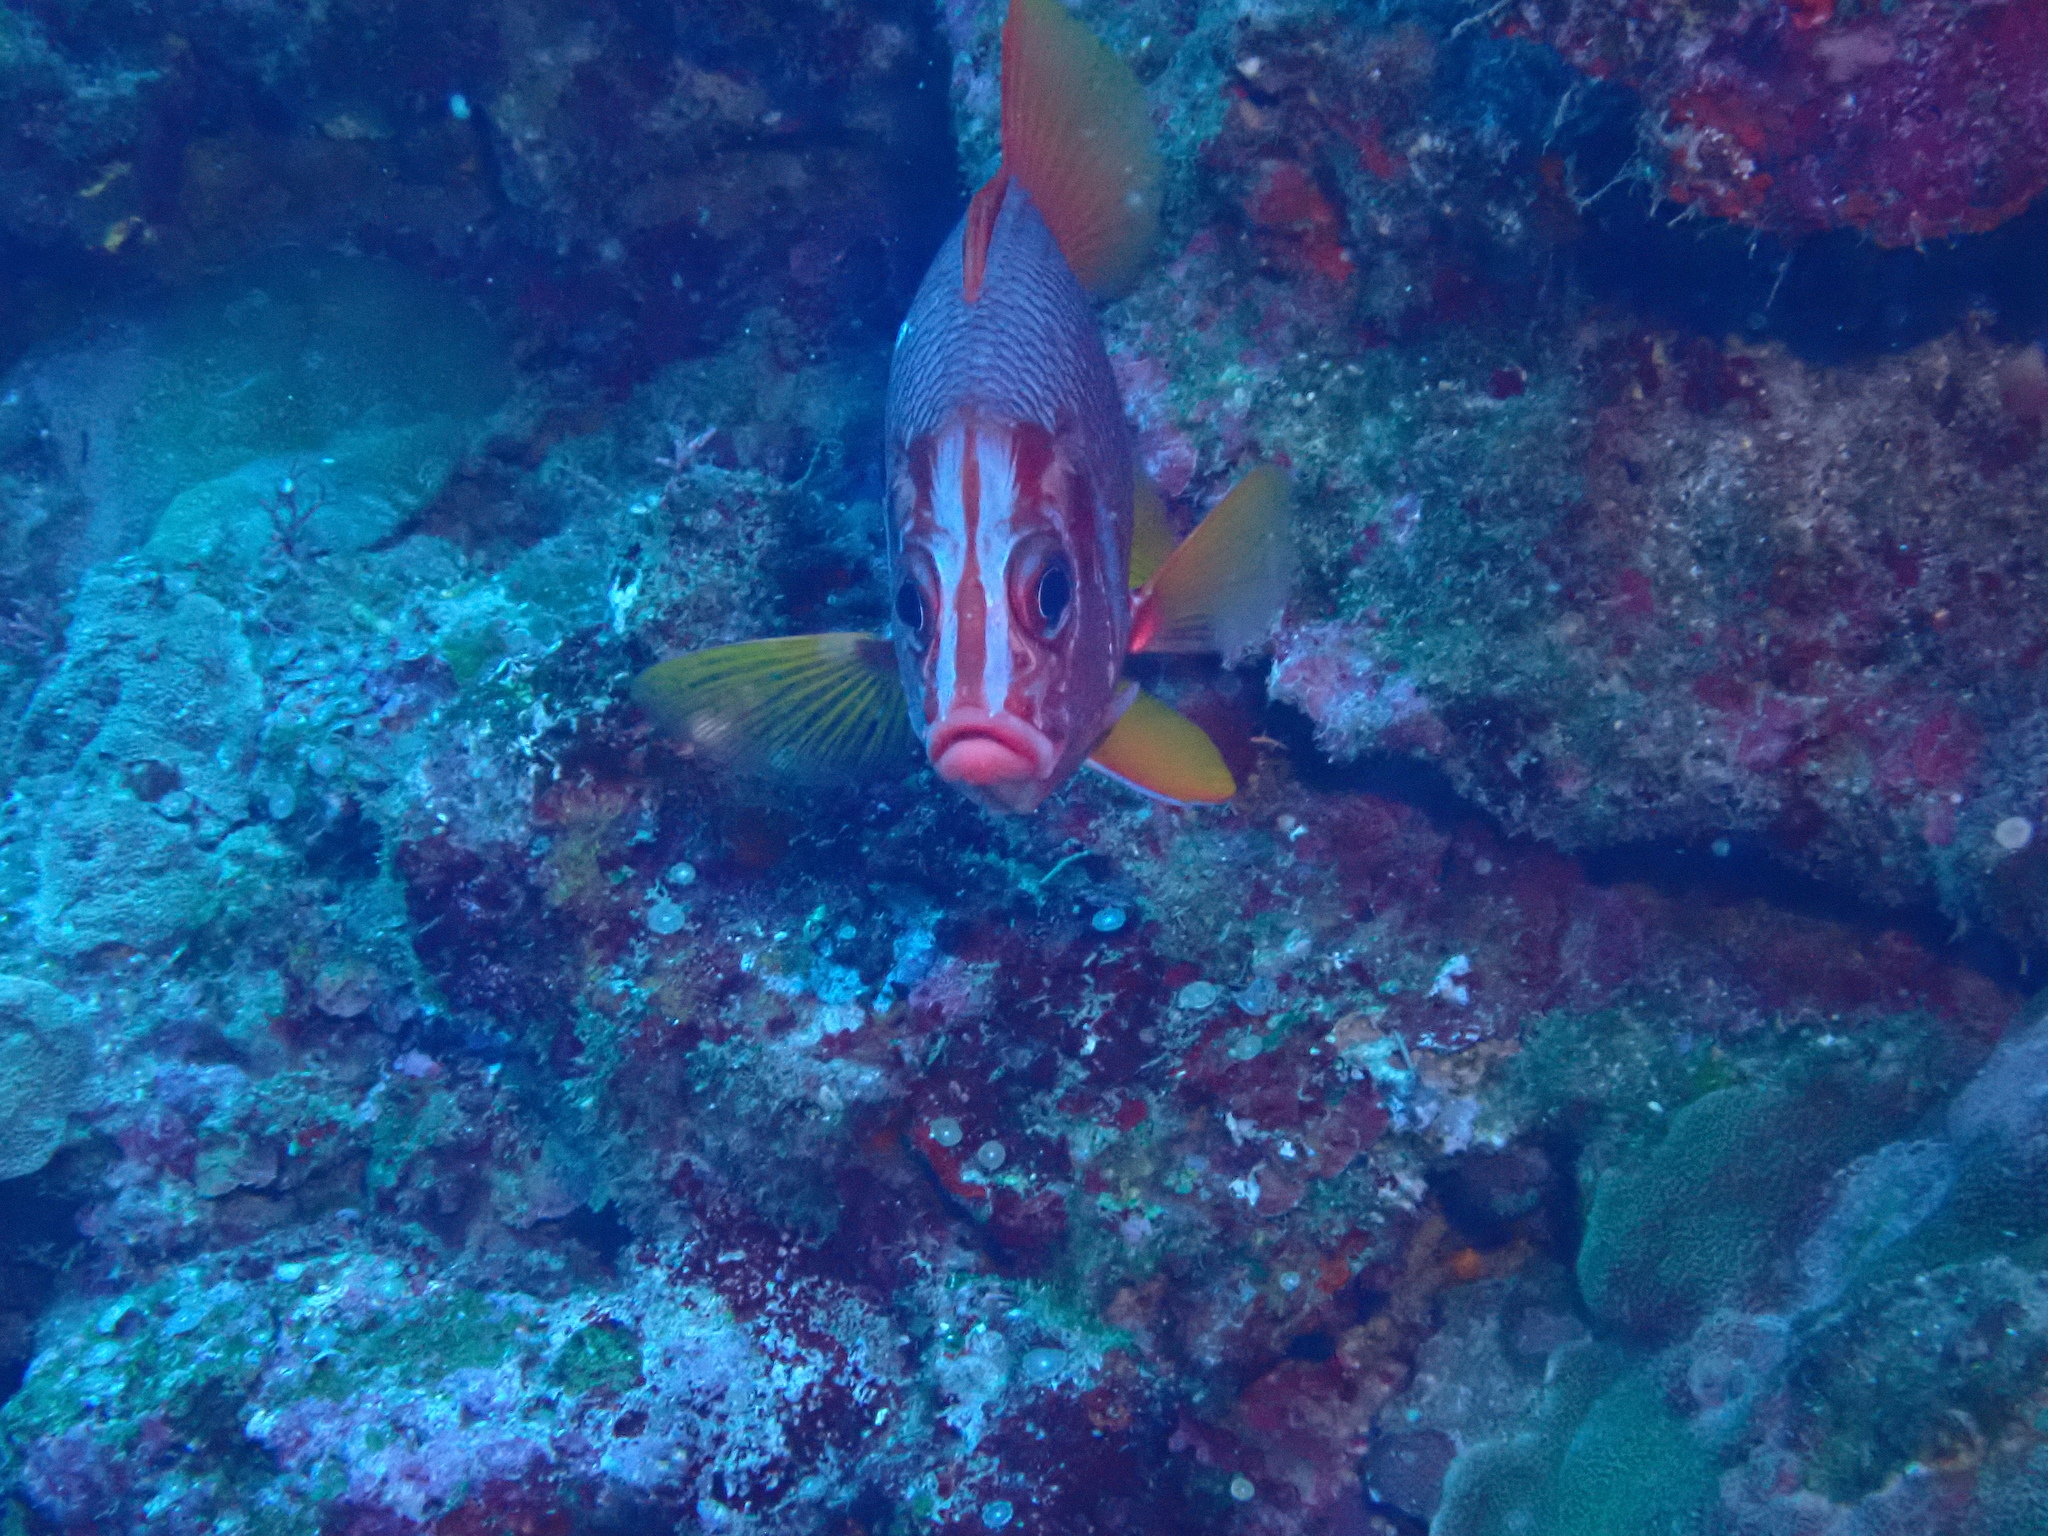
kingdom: Animalia
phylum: Chordata
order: Beryciformes
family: Holocentridae
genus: Sargocentron
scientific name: Sargocentron spiniferum
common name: Giant squirrelfish
